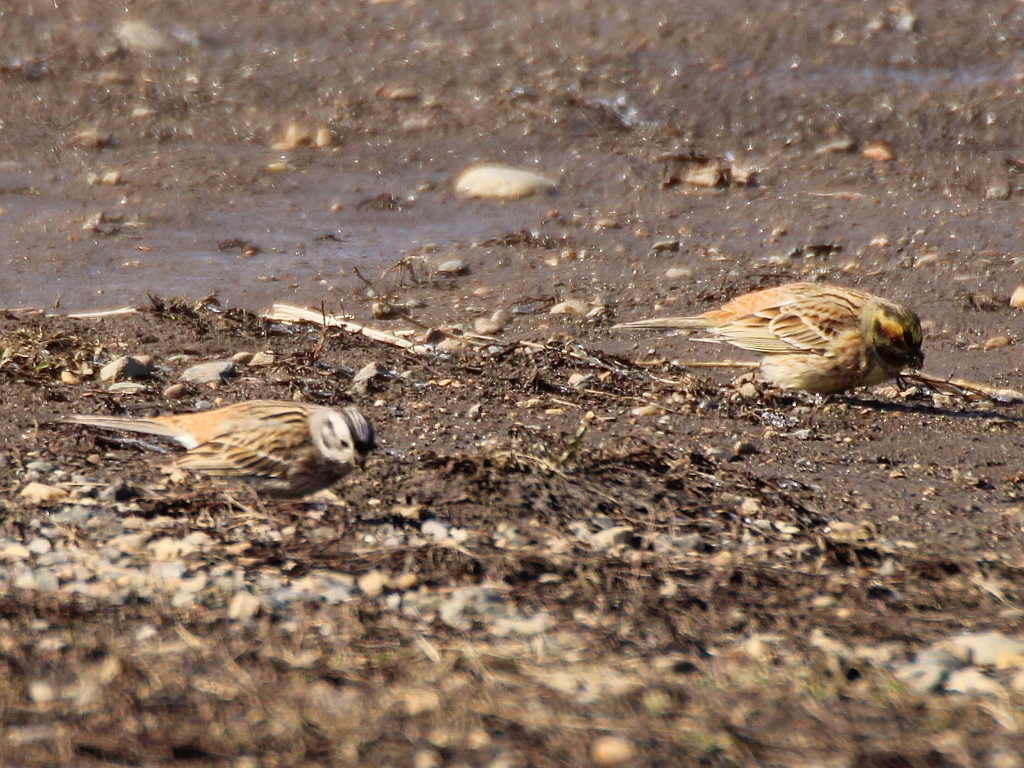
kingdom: Animalia
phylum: Chordata
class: Aves
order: Passeriformes
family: Emberizidae
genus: Emberiza
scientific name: Emberiza
